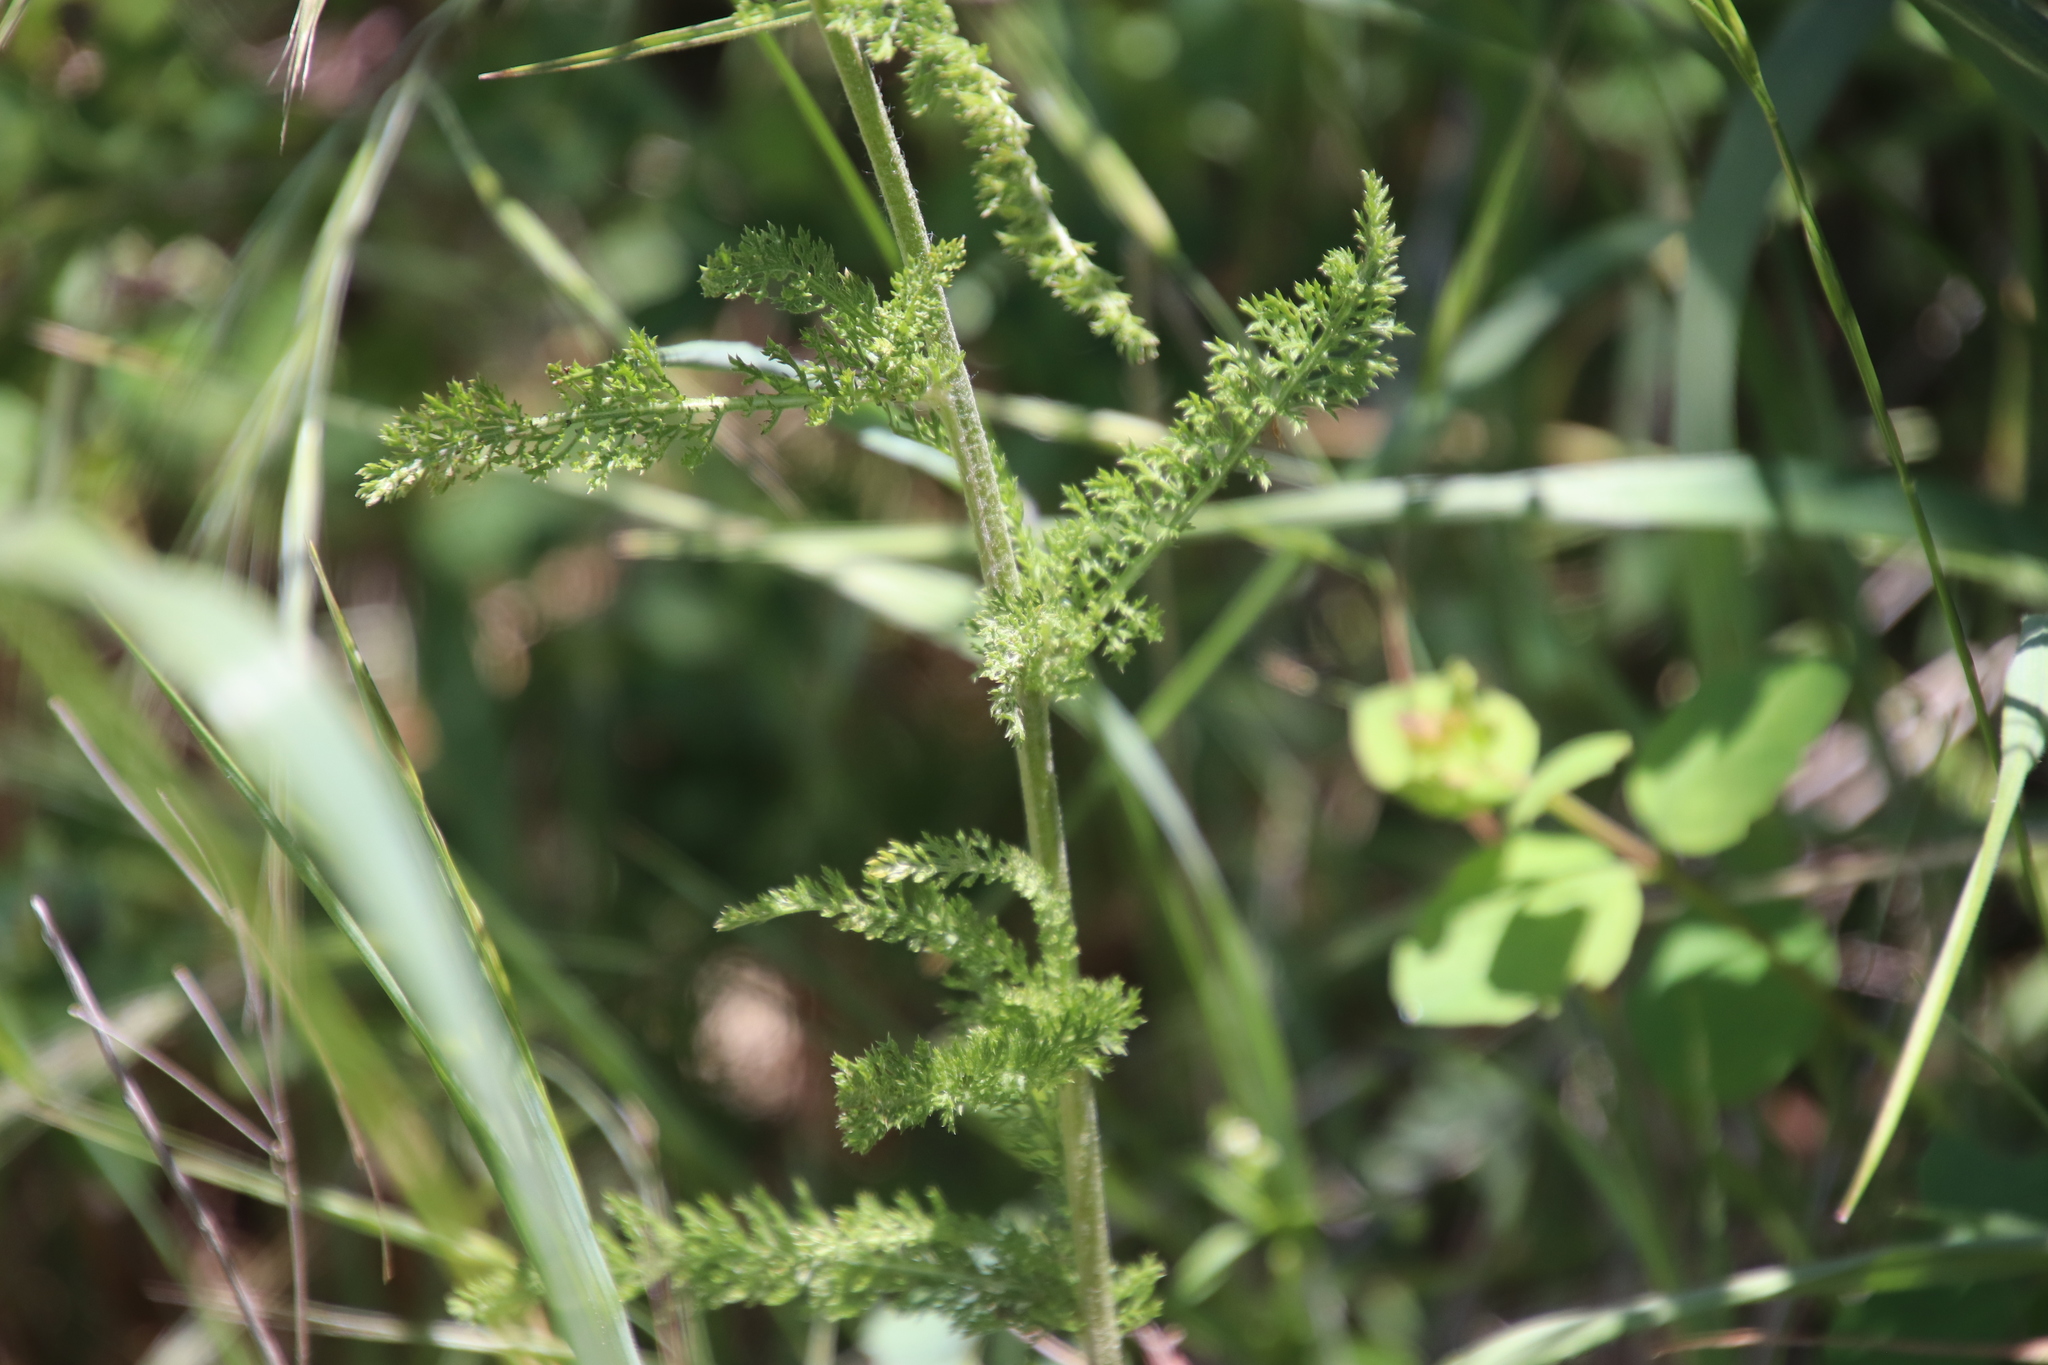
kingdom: Plantae
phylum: Tracheophyta
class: Magnoliopsida
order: Asterales
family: Asteraceae
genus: Achillea
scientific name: Achillea millefolium
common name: Yarrow
